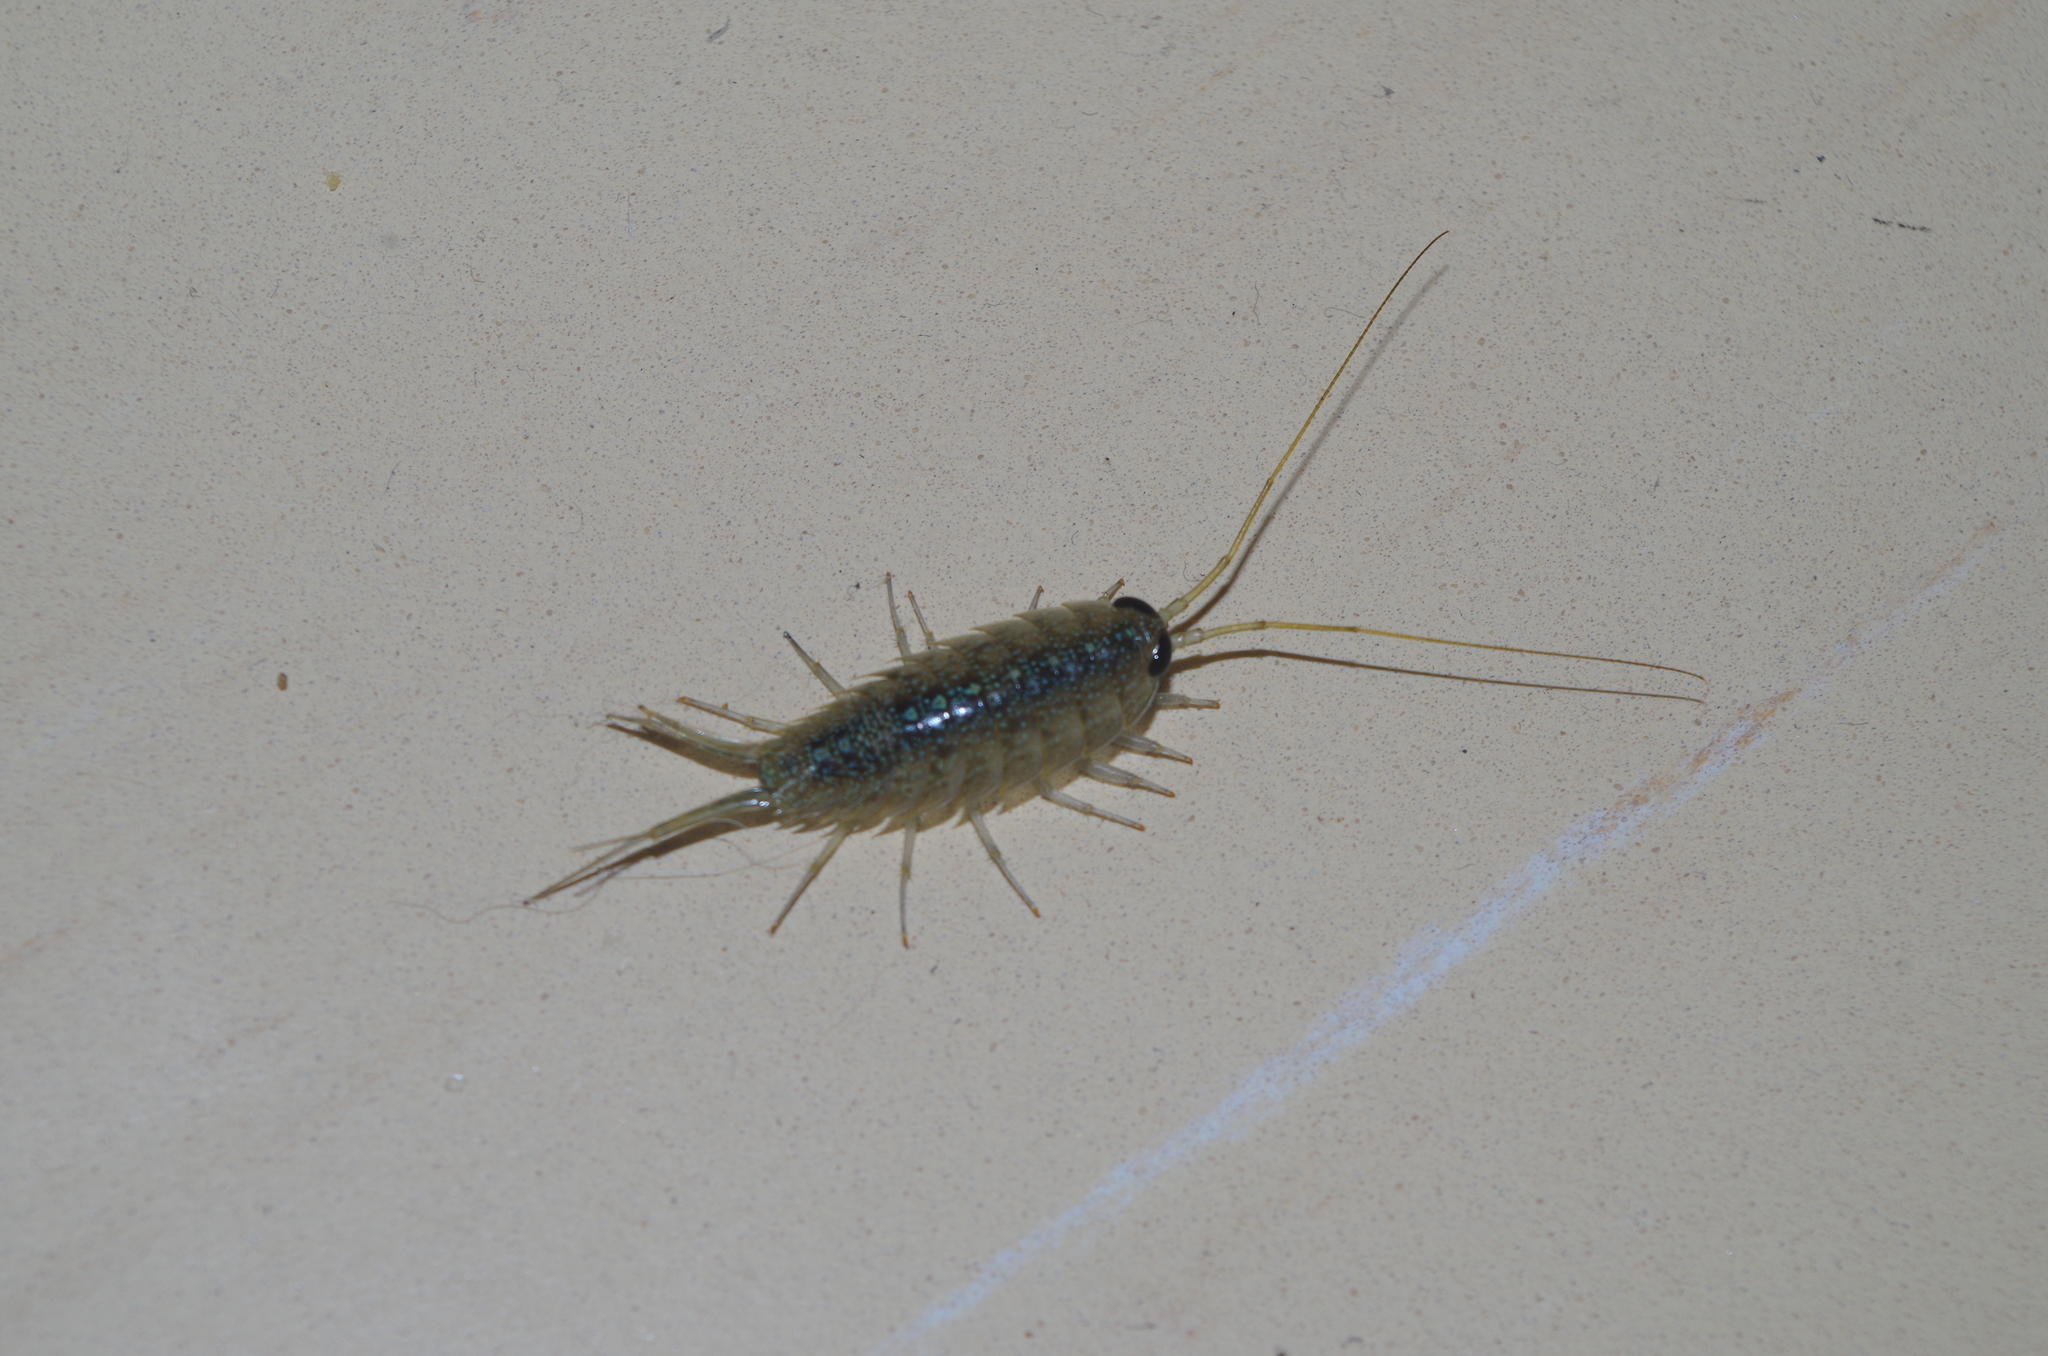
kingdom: Animalia
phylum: Arthropoda
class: Malacostraca
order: Isopoda
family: Ligiidae
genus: Ligia
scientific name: Ligia ryukyuensis
